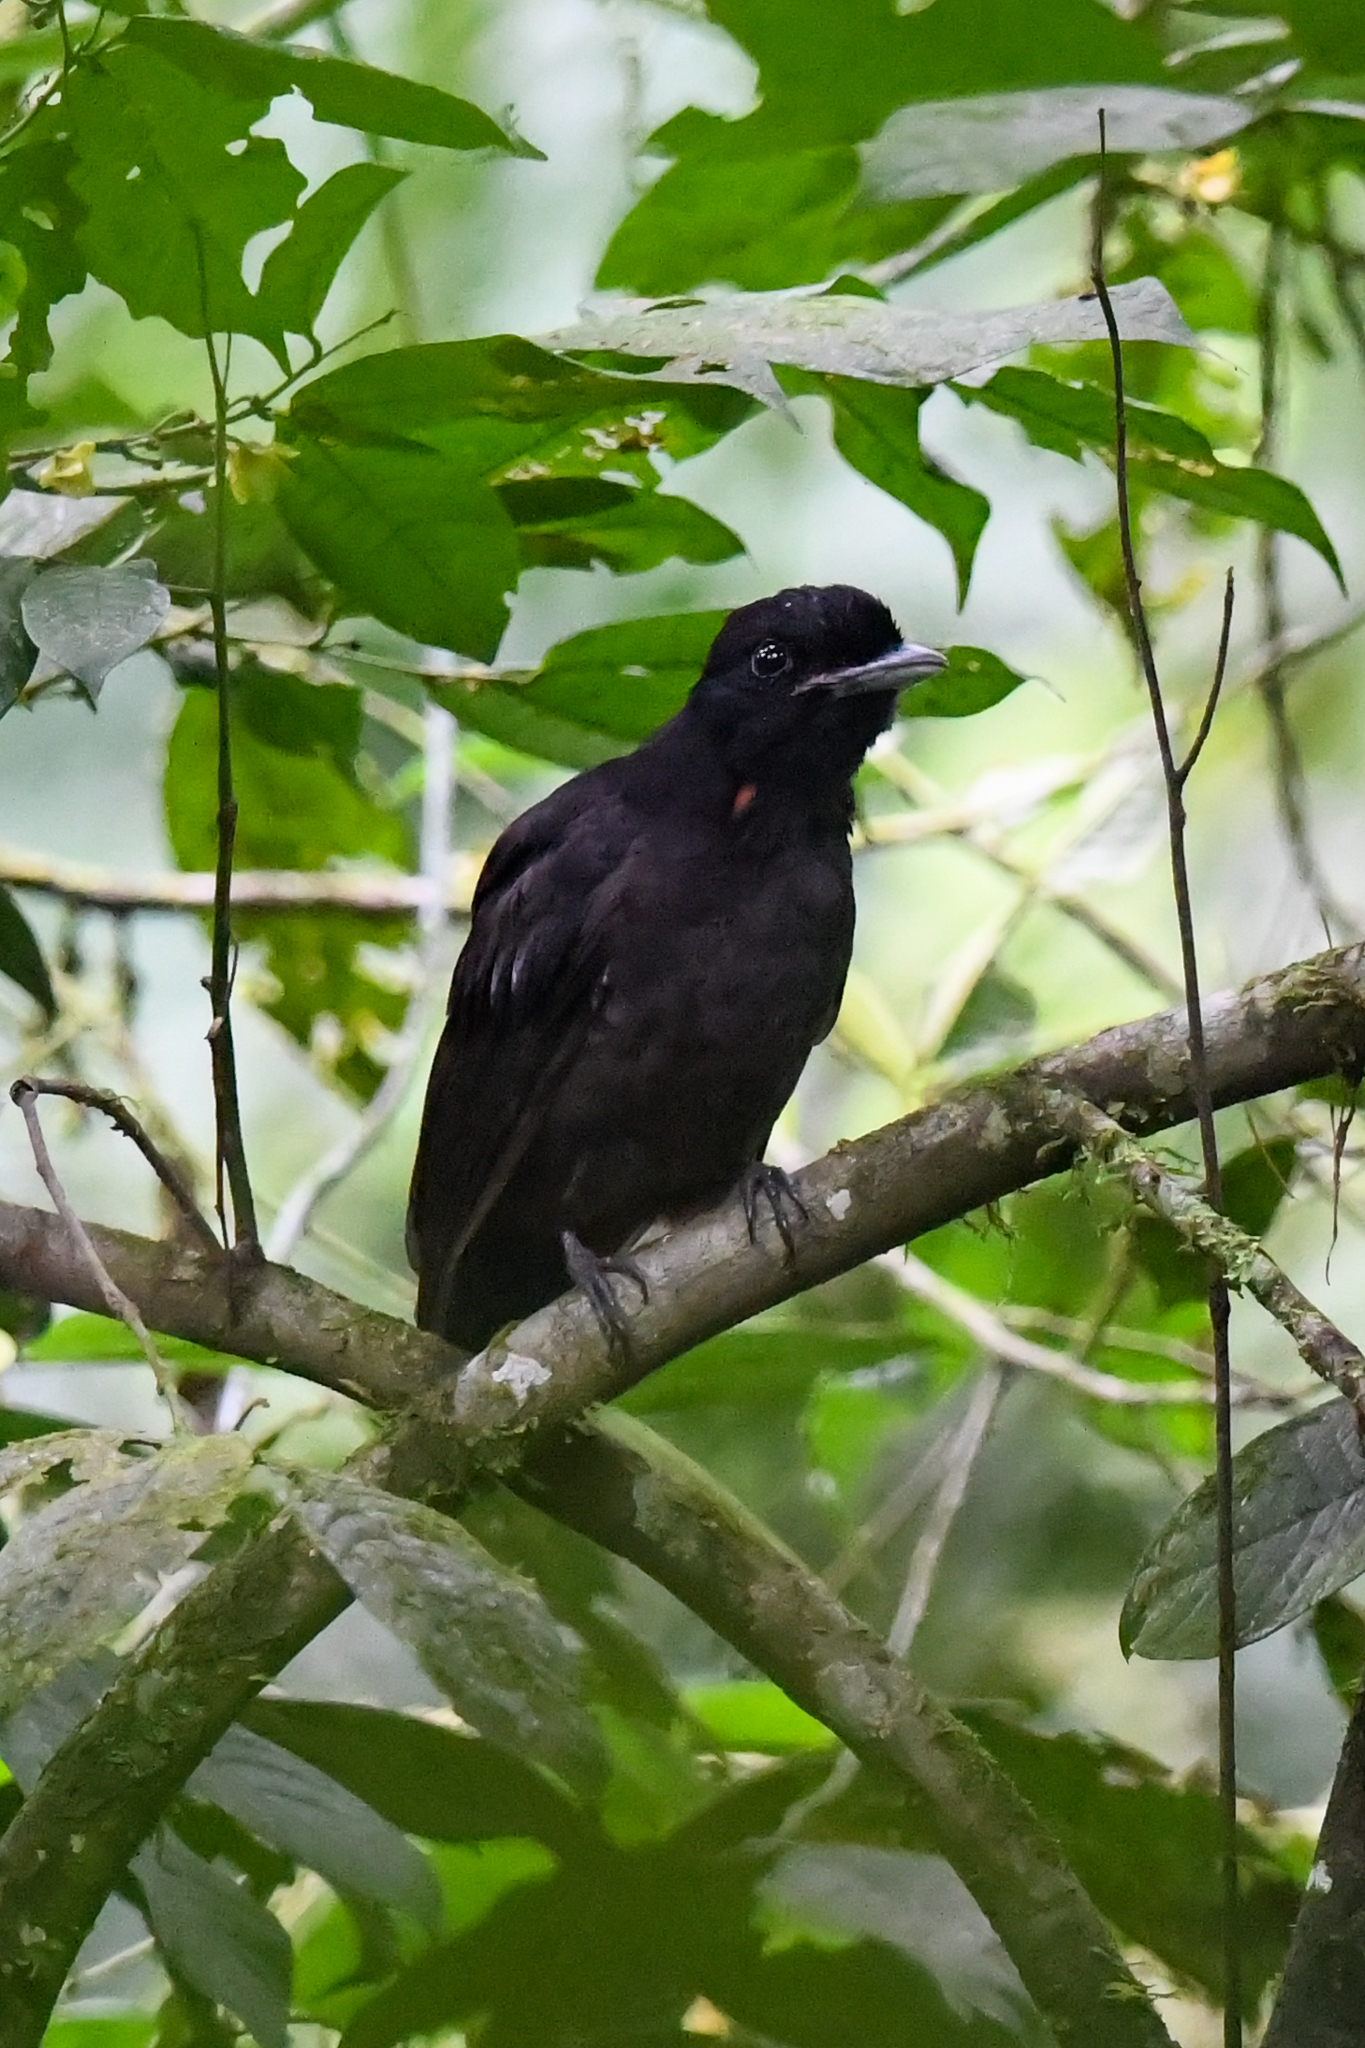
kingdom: Animalia
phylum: Chordata
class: Aves
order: Passeriformes
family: Cotingidae
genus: Cephalopterus
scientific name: Cephalopterus glabricollis
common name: Bare-necked umbrellabird
